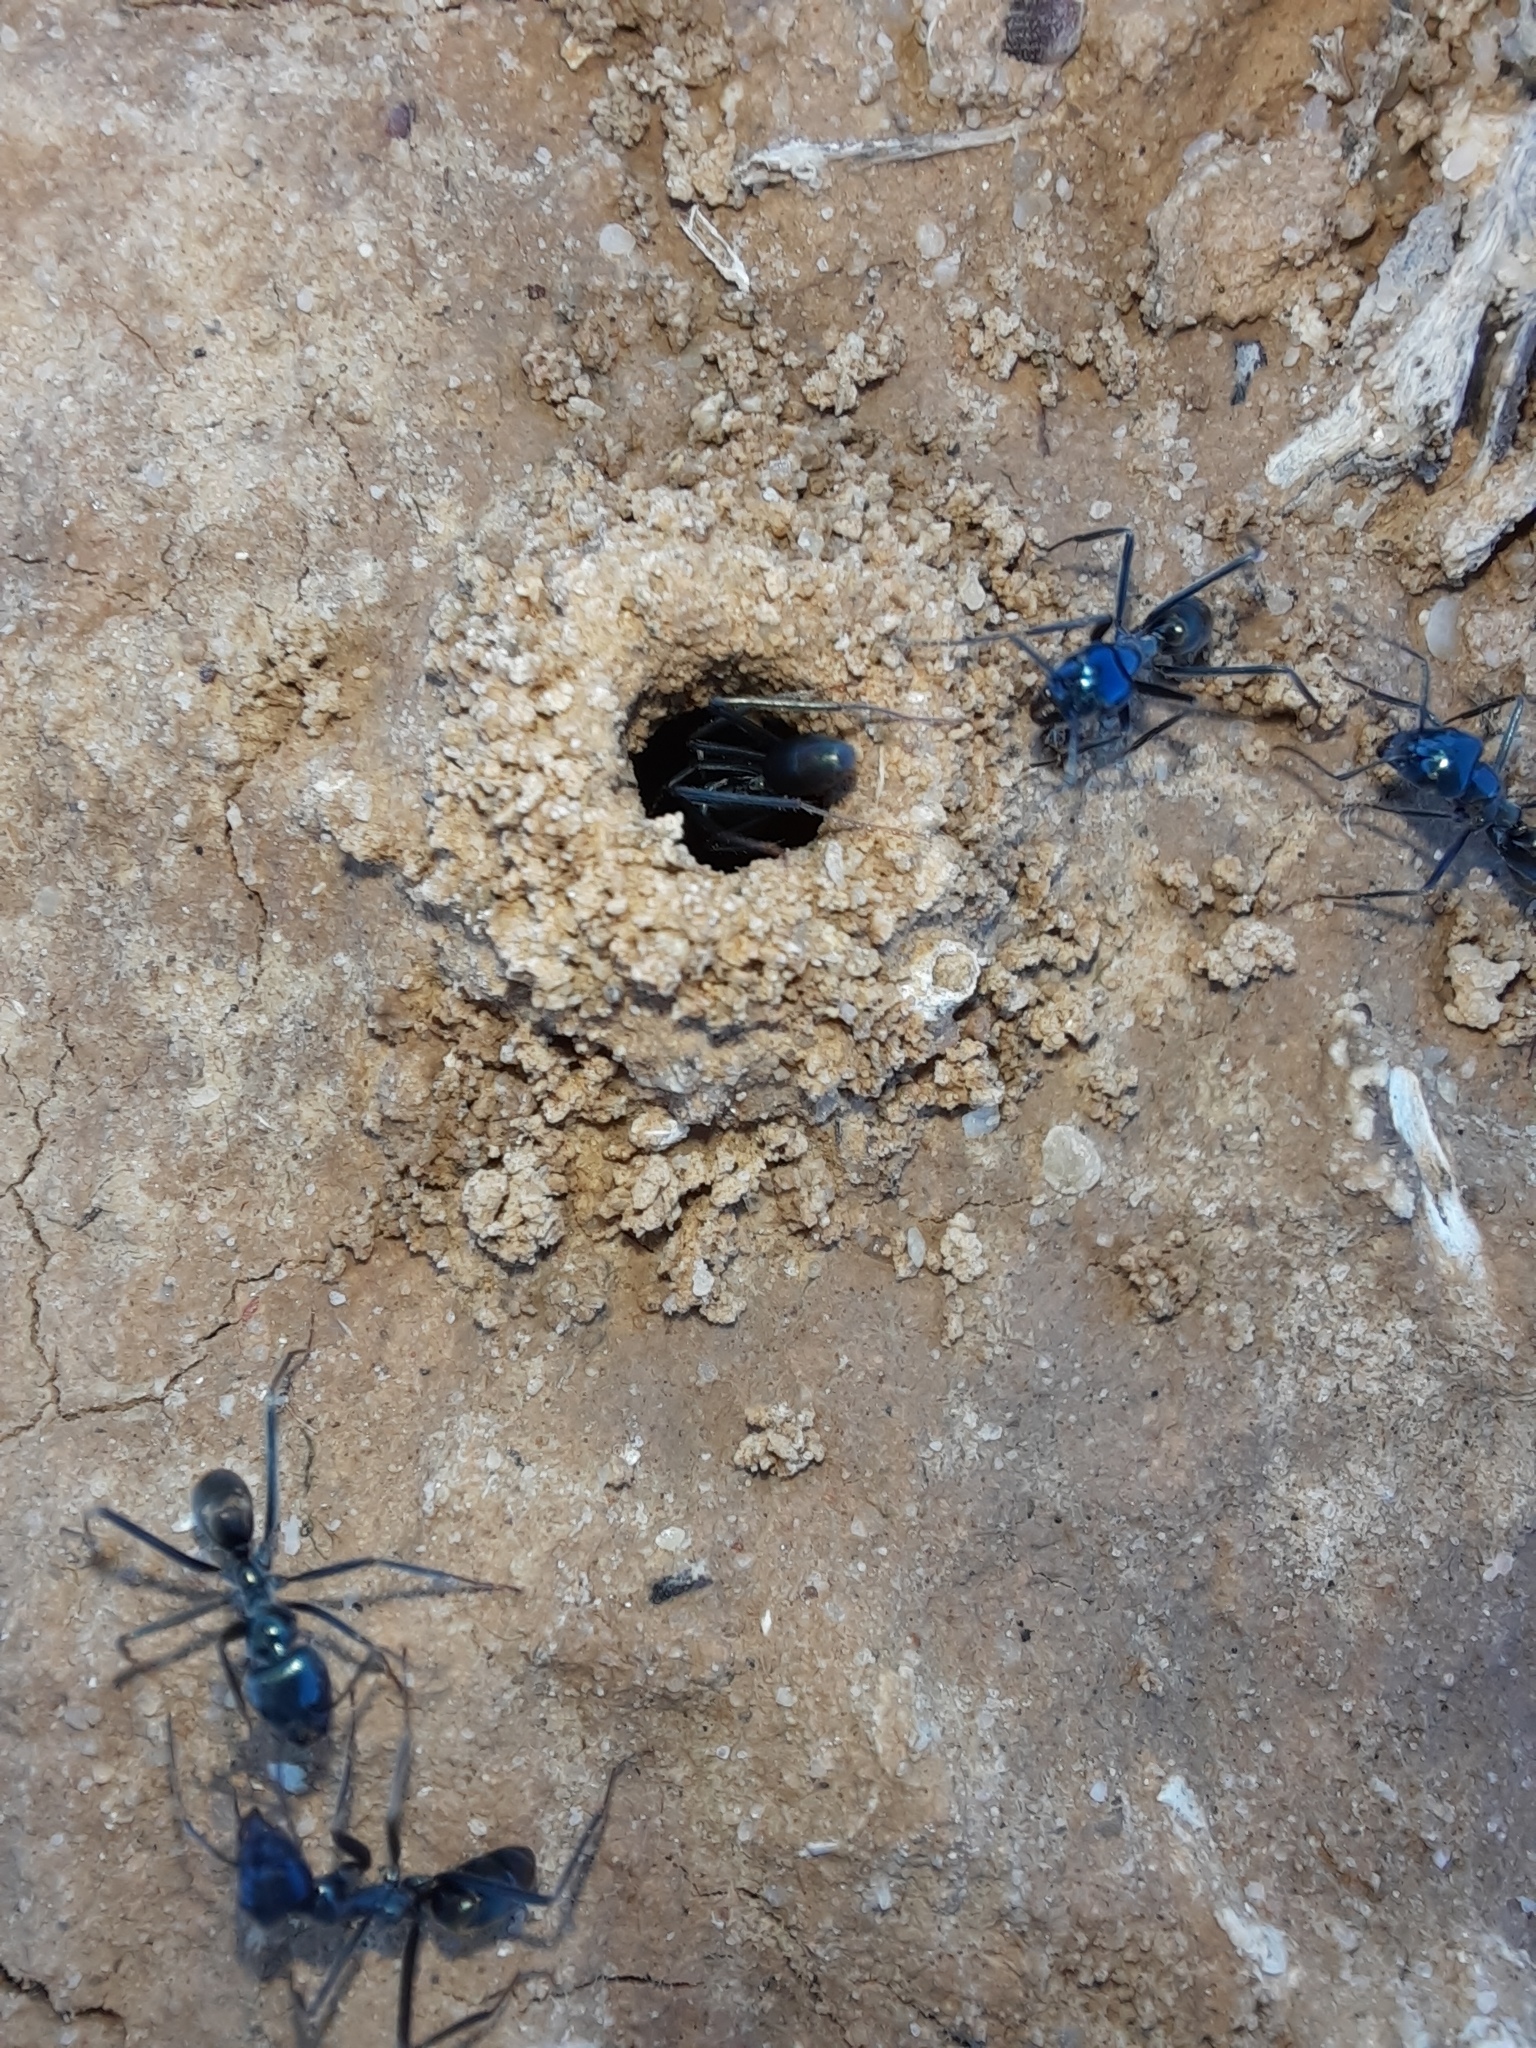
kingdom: Animalia
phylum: Arthropoda
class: Insecta
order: Hymenoptera
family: Formicidae
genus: Iridomyrmex
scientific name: Iridomyrmex lividus
